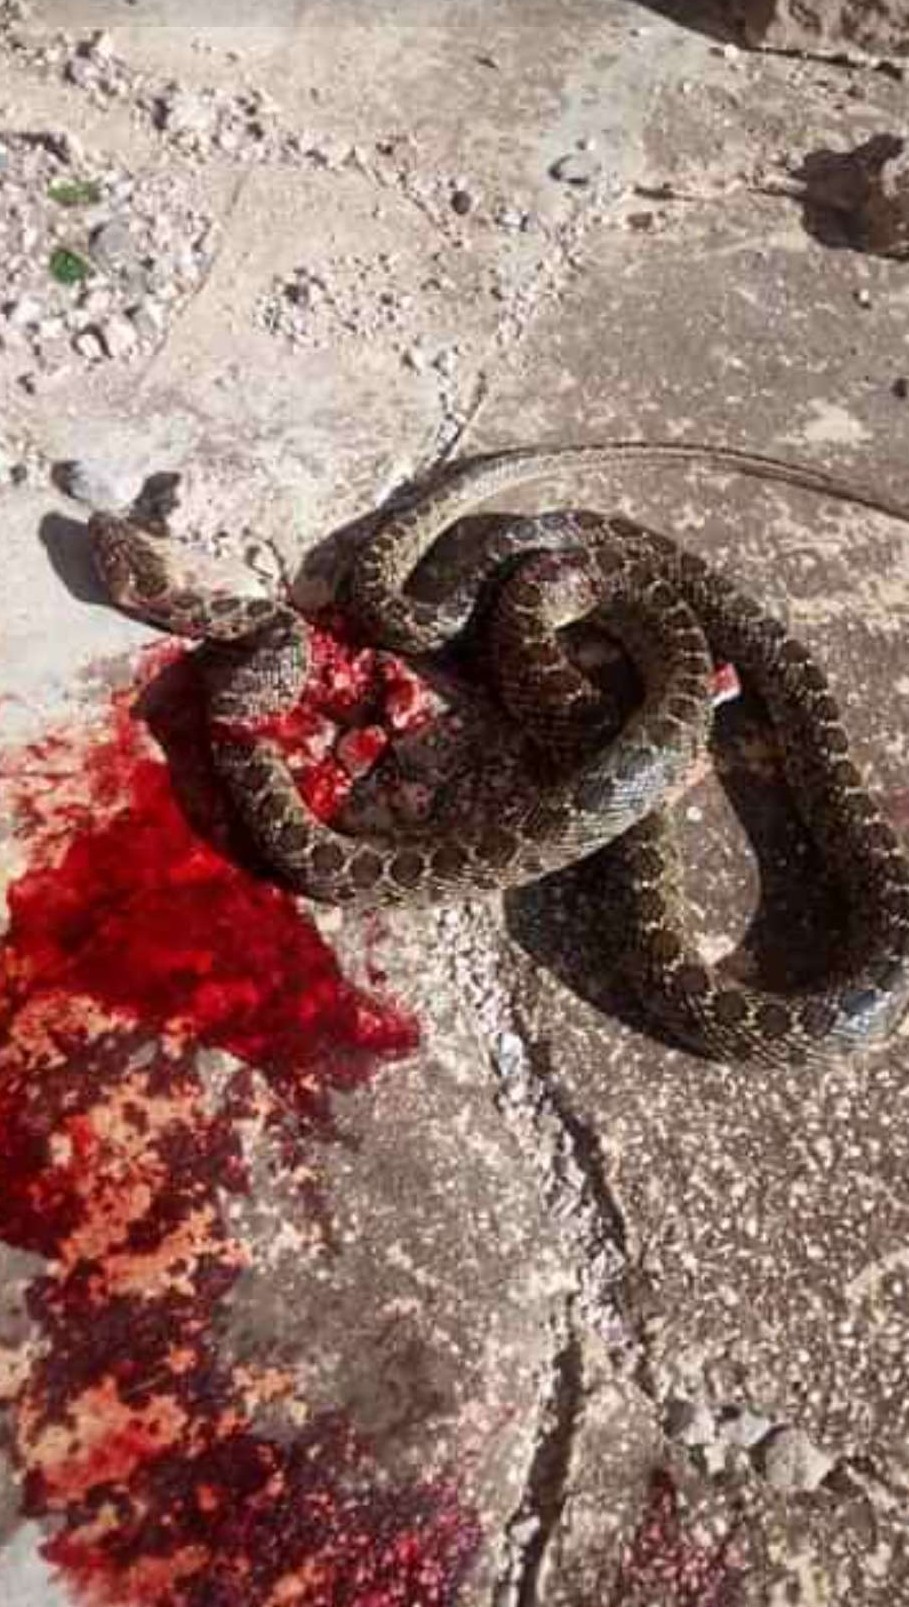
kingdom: Animalia
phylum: Chordata
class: Squamata
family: Colubridae
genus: Hemorrhois
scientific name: Hemorrhois hippocrepis
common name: Horseshoe whip snake
